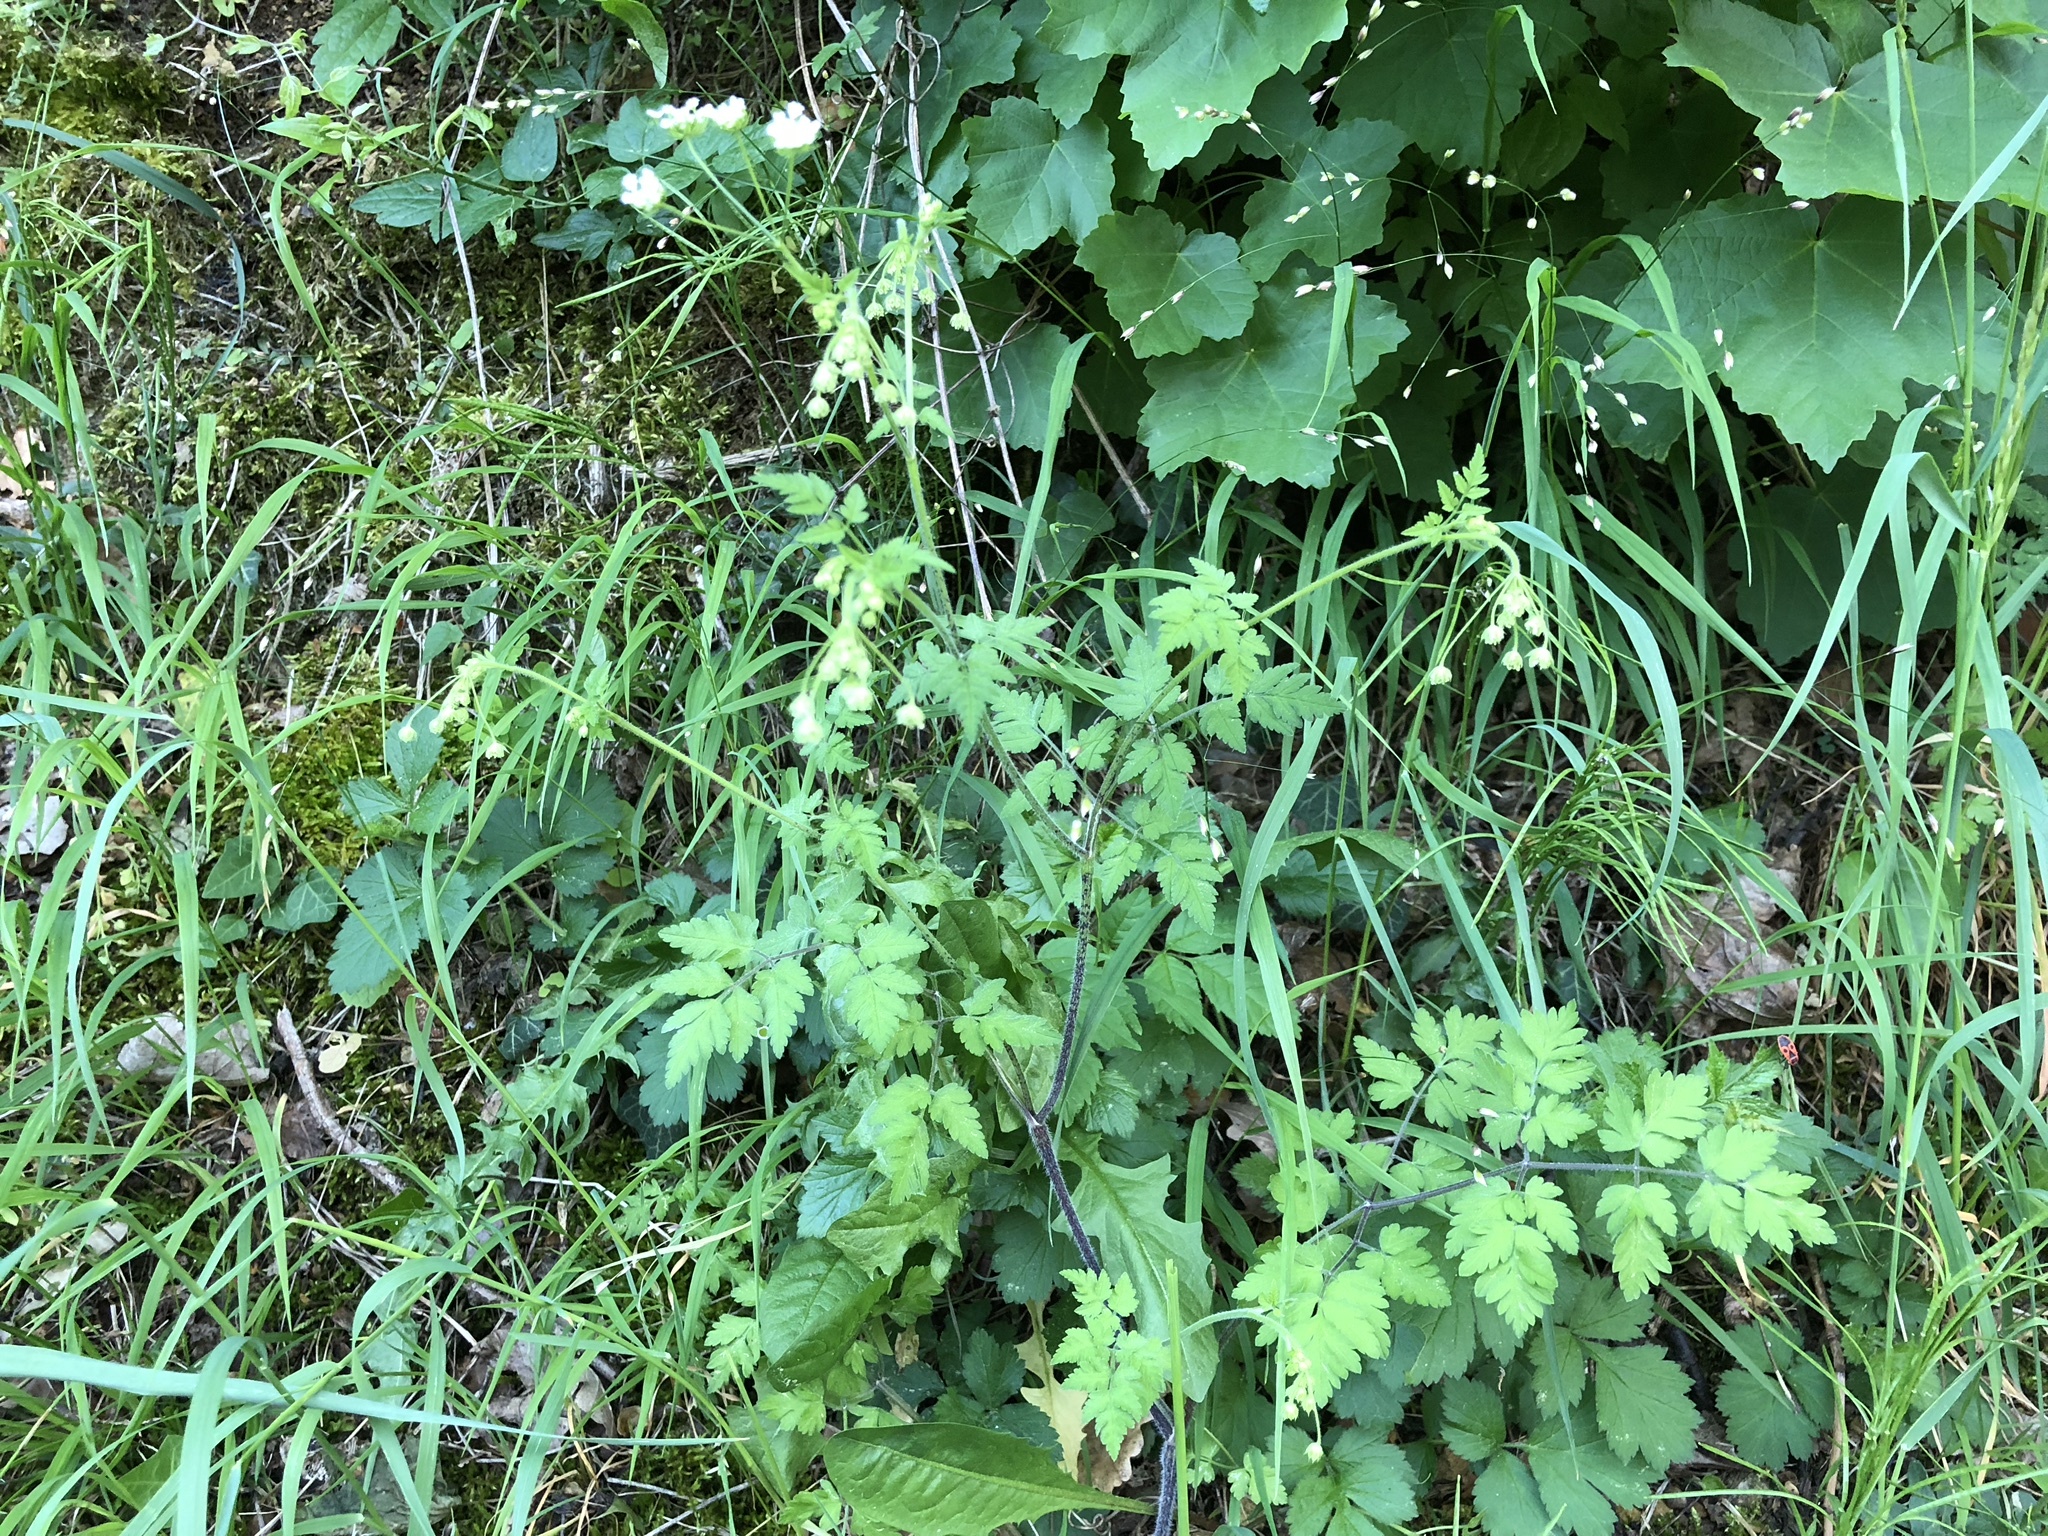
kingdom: Plantae
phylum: Tracheophyta
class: Magnoliopsida
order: Apiales
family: Apiaceae
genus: Chaerophyllum
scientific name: Chaerophyllum temulum
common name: Rough chervil
